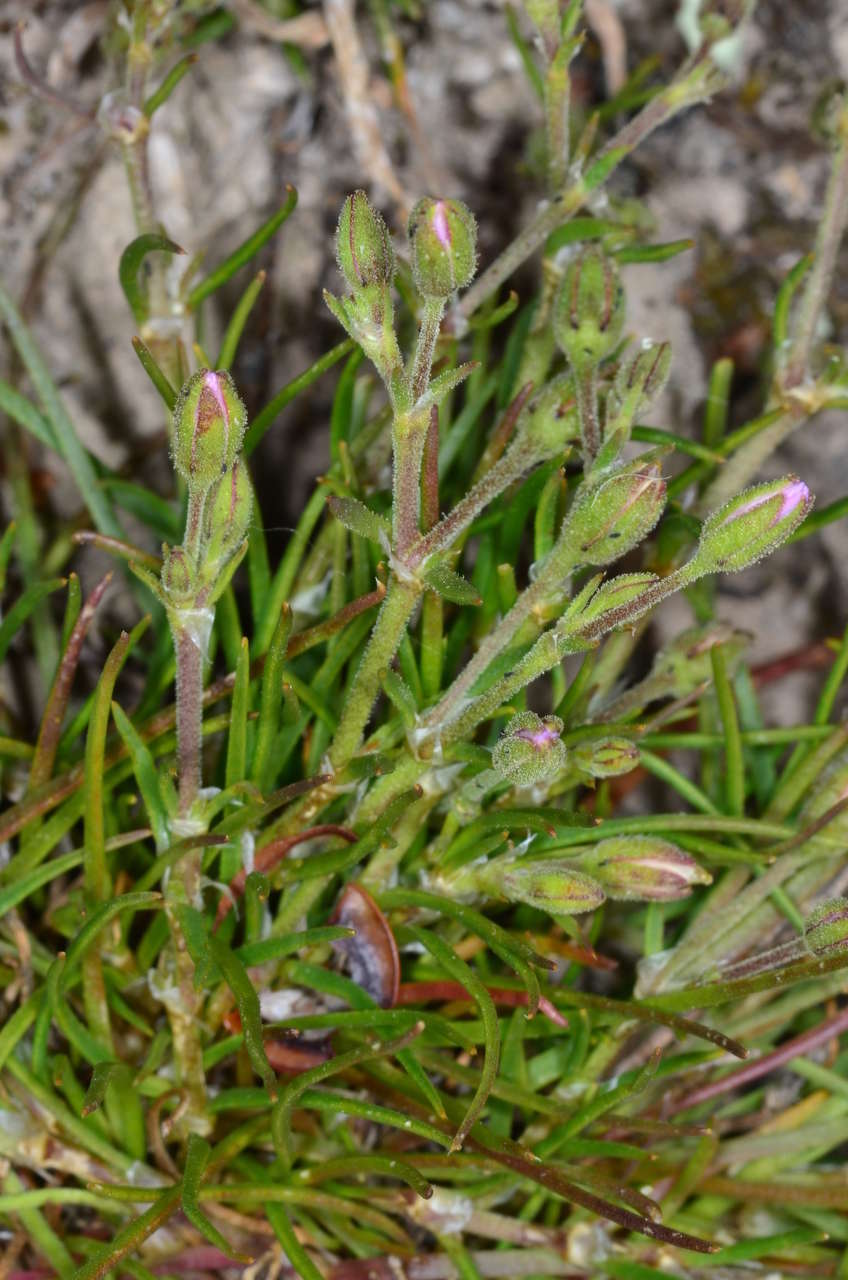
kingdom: Plantae
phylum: Tracheophyta
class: Magnoliopsida
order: Caryophyllales
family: Caryophyllaceae
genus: Spergularia
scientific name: Spergularia rubra
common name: Red sand-spurrey
